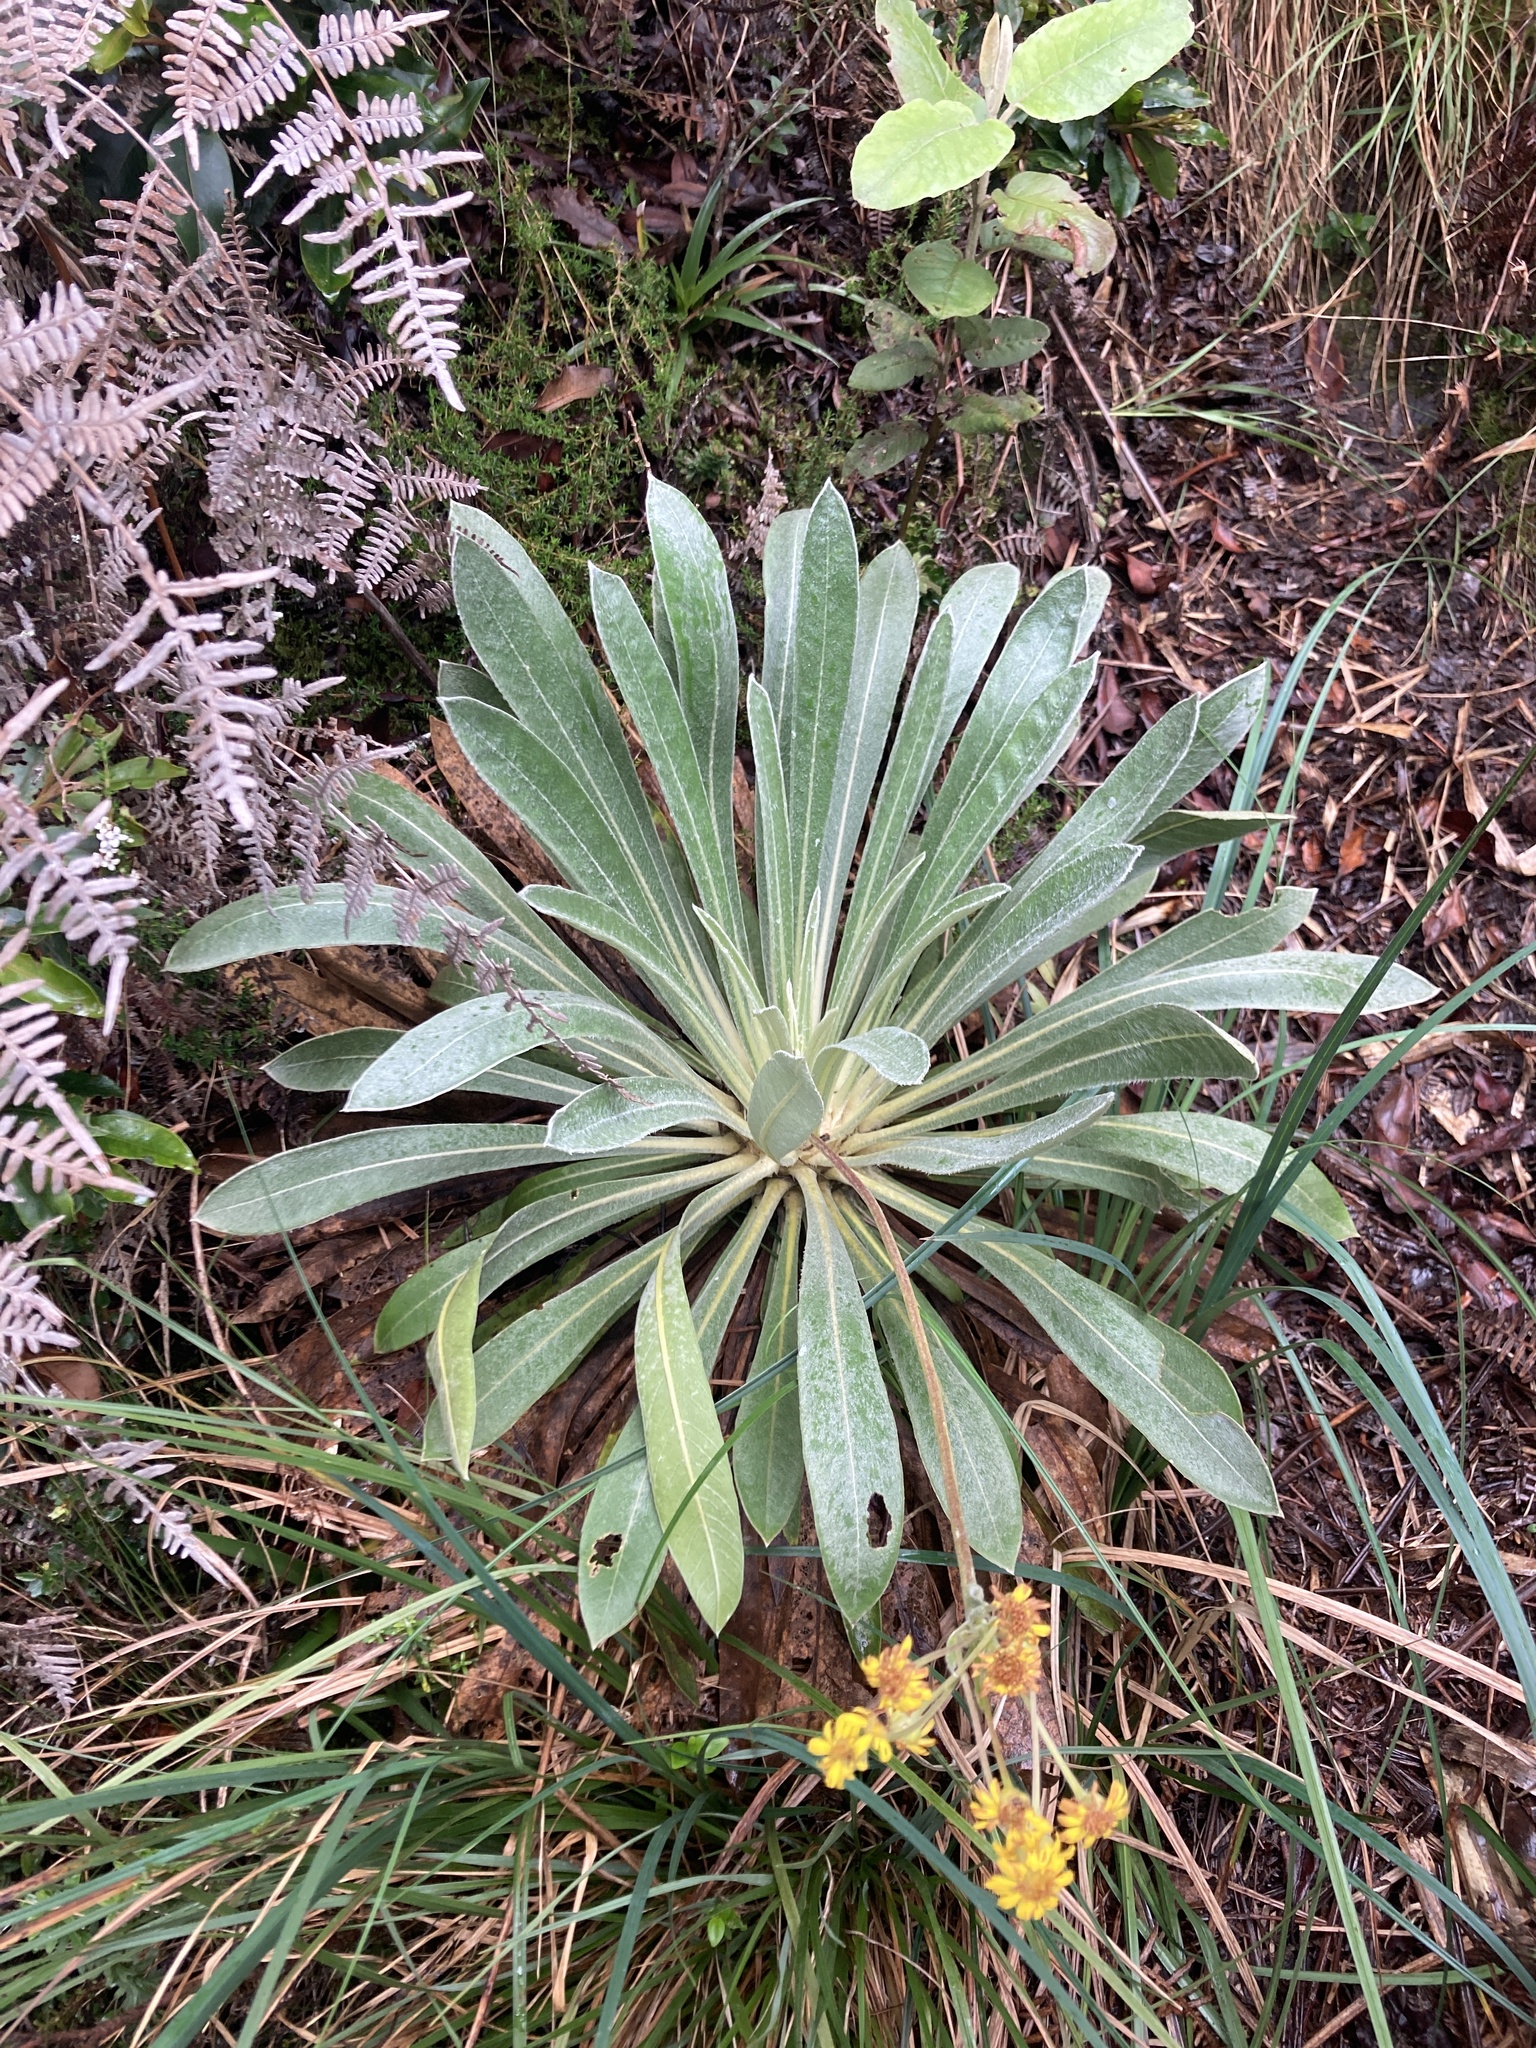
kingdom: Plantae
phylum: Tracheophyta
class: Magnoliopsida
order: Asterales
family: Asteraceae
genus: Espeletia
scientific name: Espeletia corymbosa
